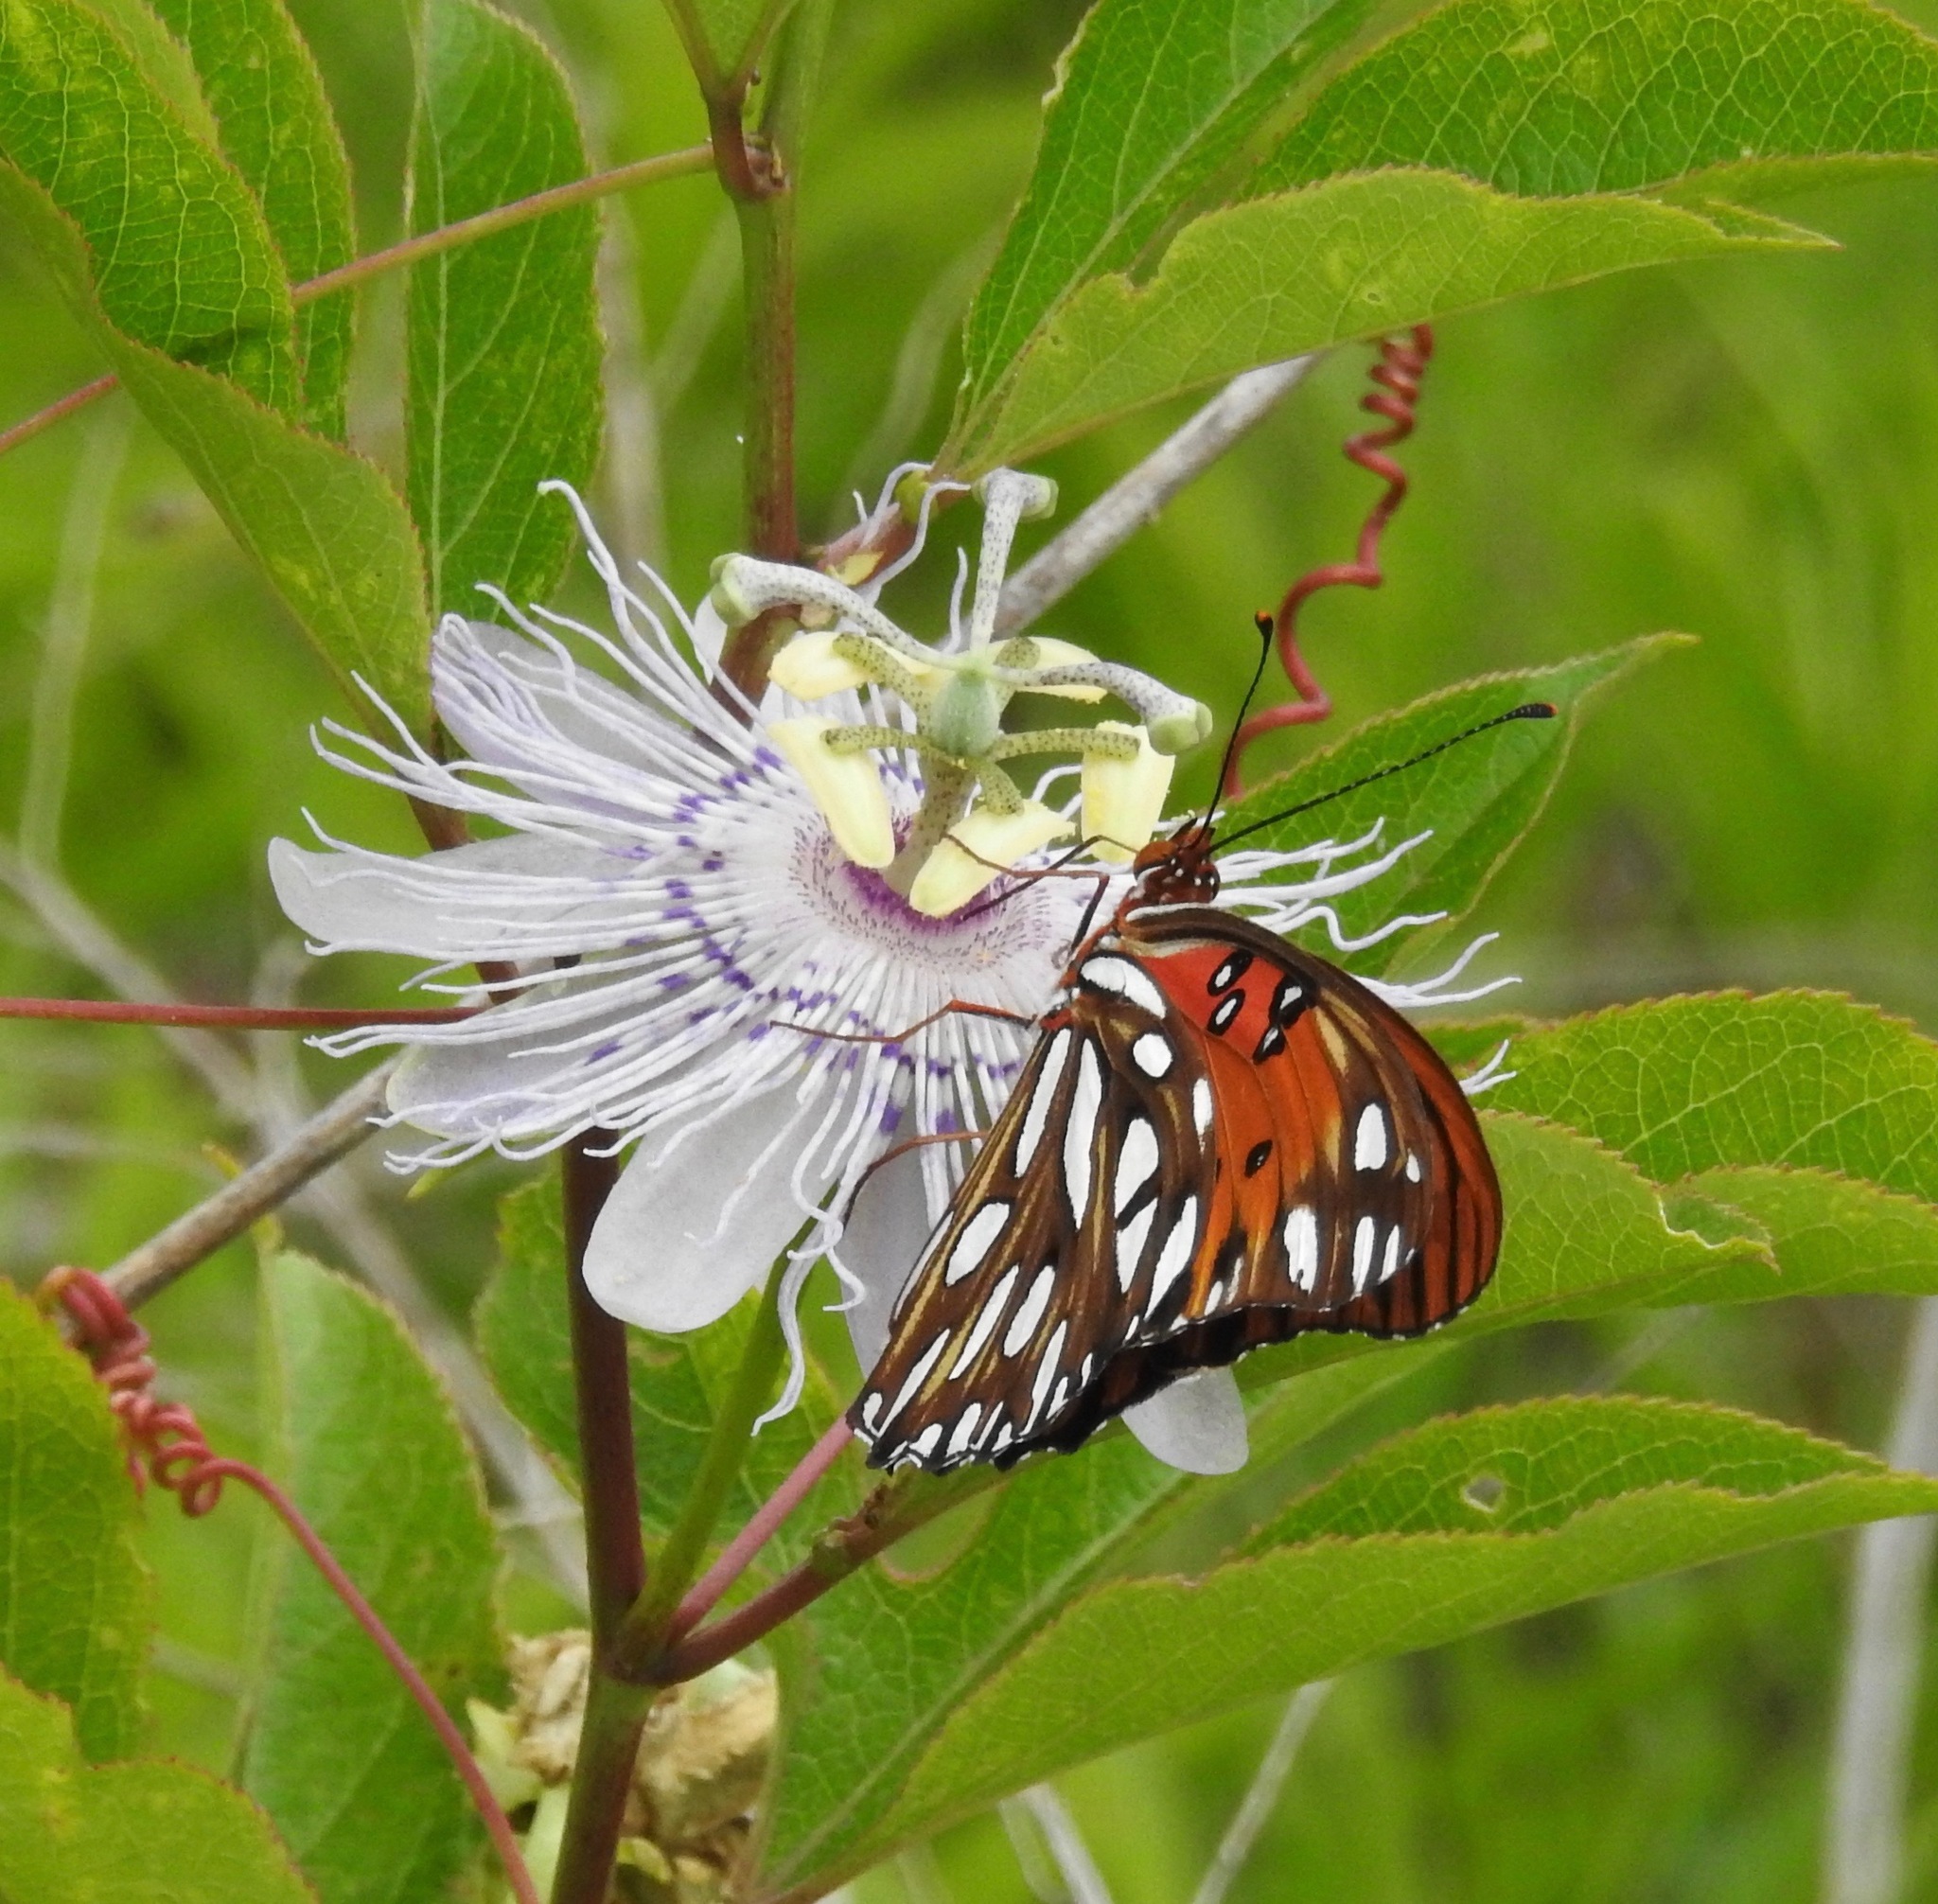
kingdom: Animalia
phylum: Arthropoda
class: Insecta
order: Lepidoptera
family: Nymphalidae
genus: Dione
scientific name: Dione vanillae
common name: Gulf fritillary
